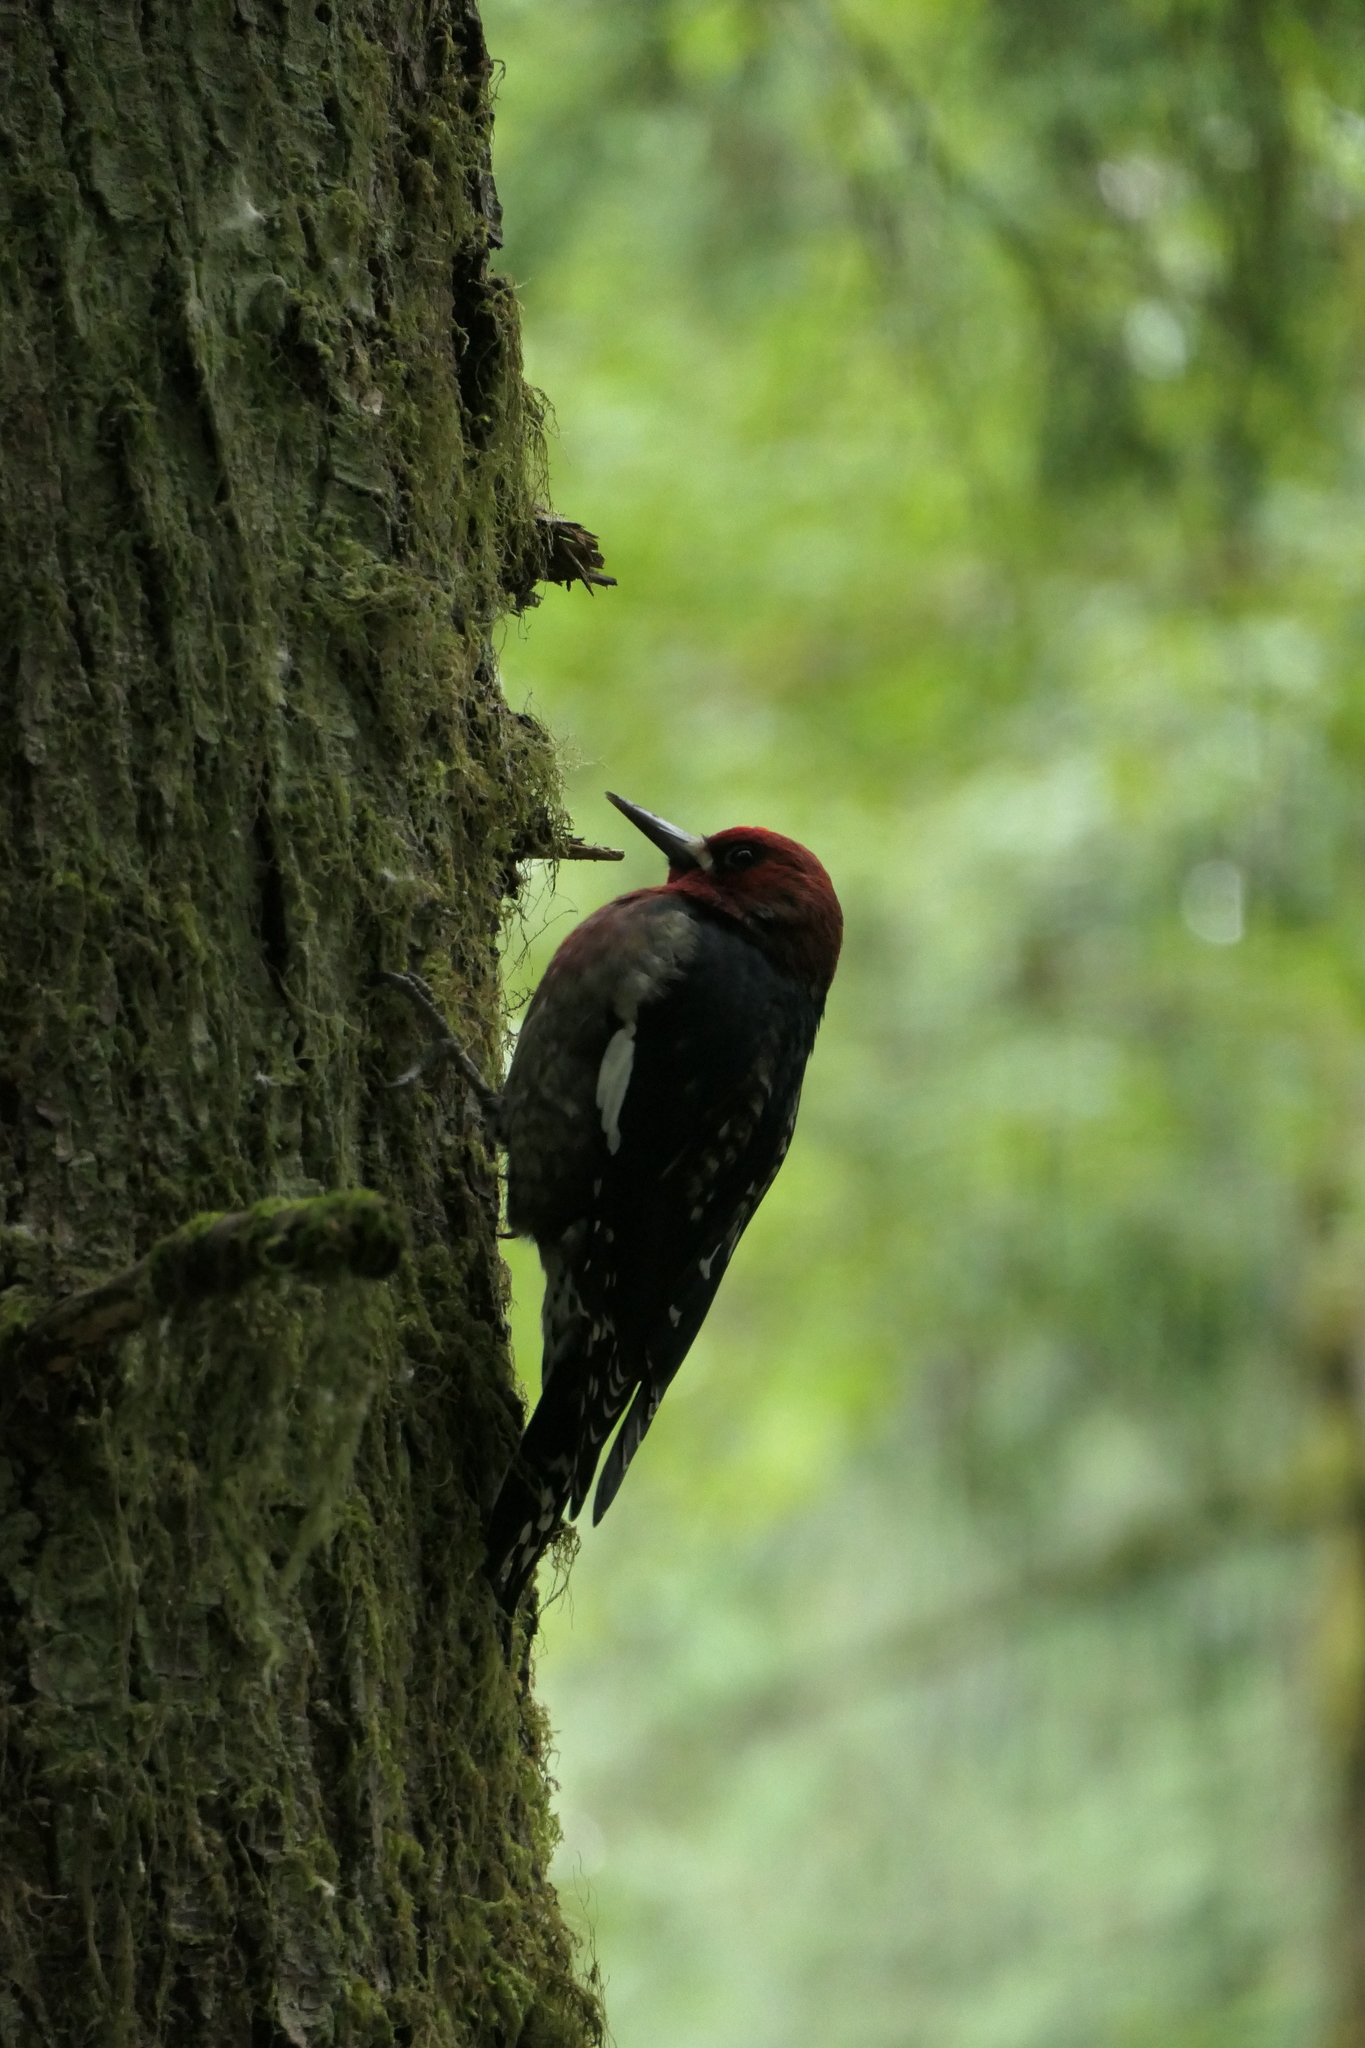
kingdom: Animalia
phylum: Chordata
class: Aves
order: Piciformes
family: Picidae
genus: Sphyrapicus
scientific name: Sphyrapicus ruber
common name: Red-breasted sapsucker
